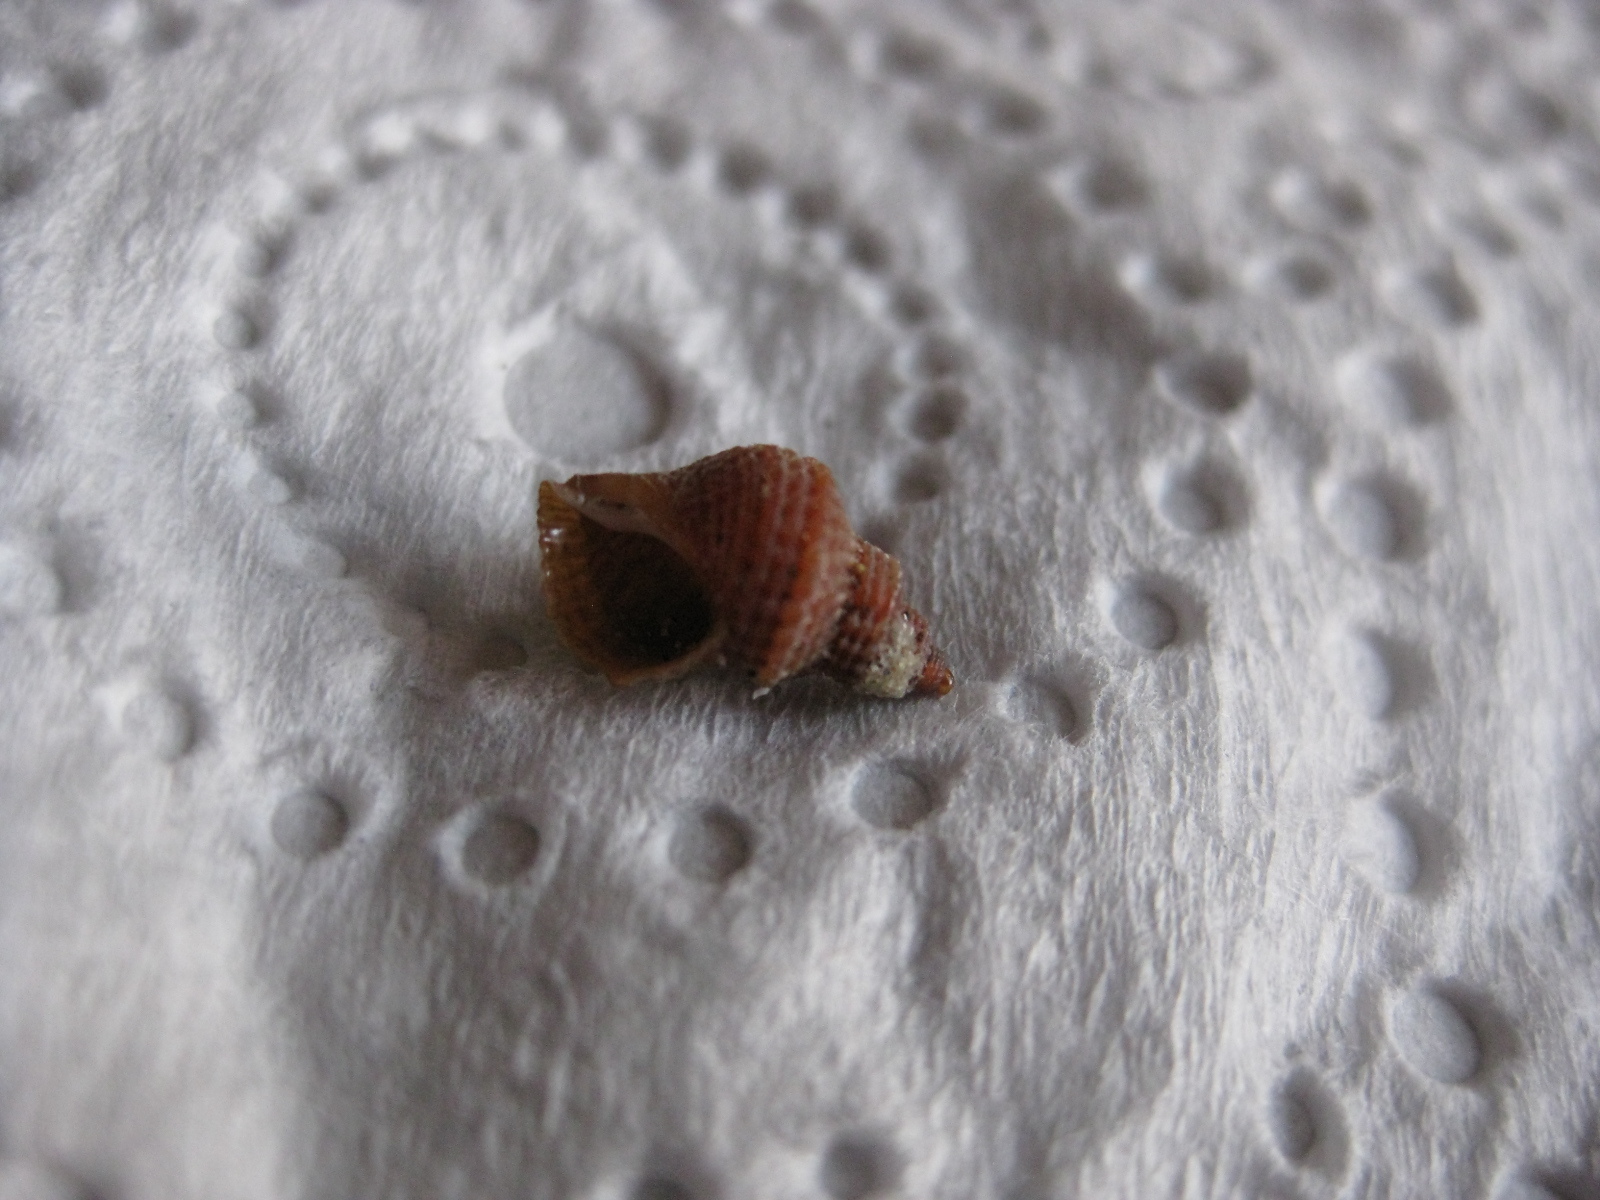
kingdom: Animalia
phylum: Mollusca
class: Gastropoda
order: Littorinimorpha
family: Capulidae
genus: Trichosirius
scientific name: Trichosirius inornatus
